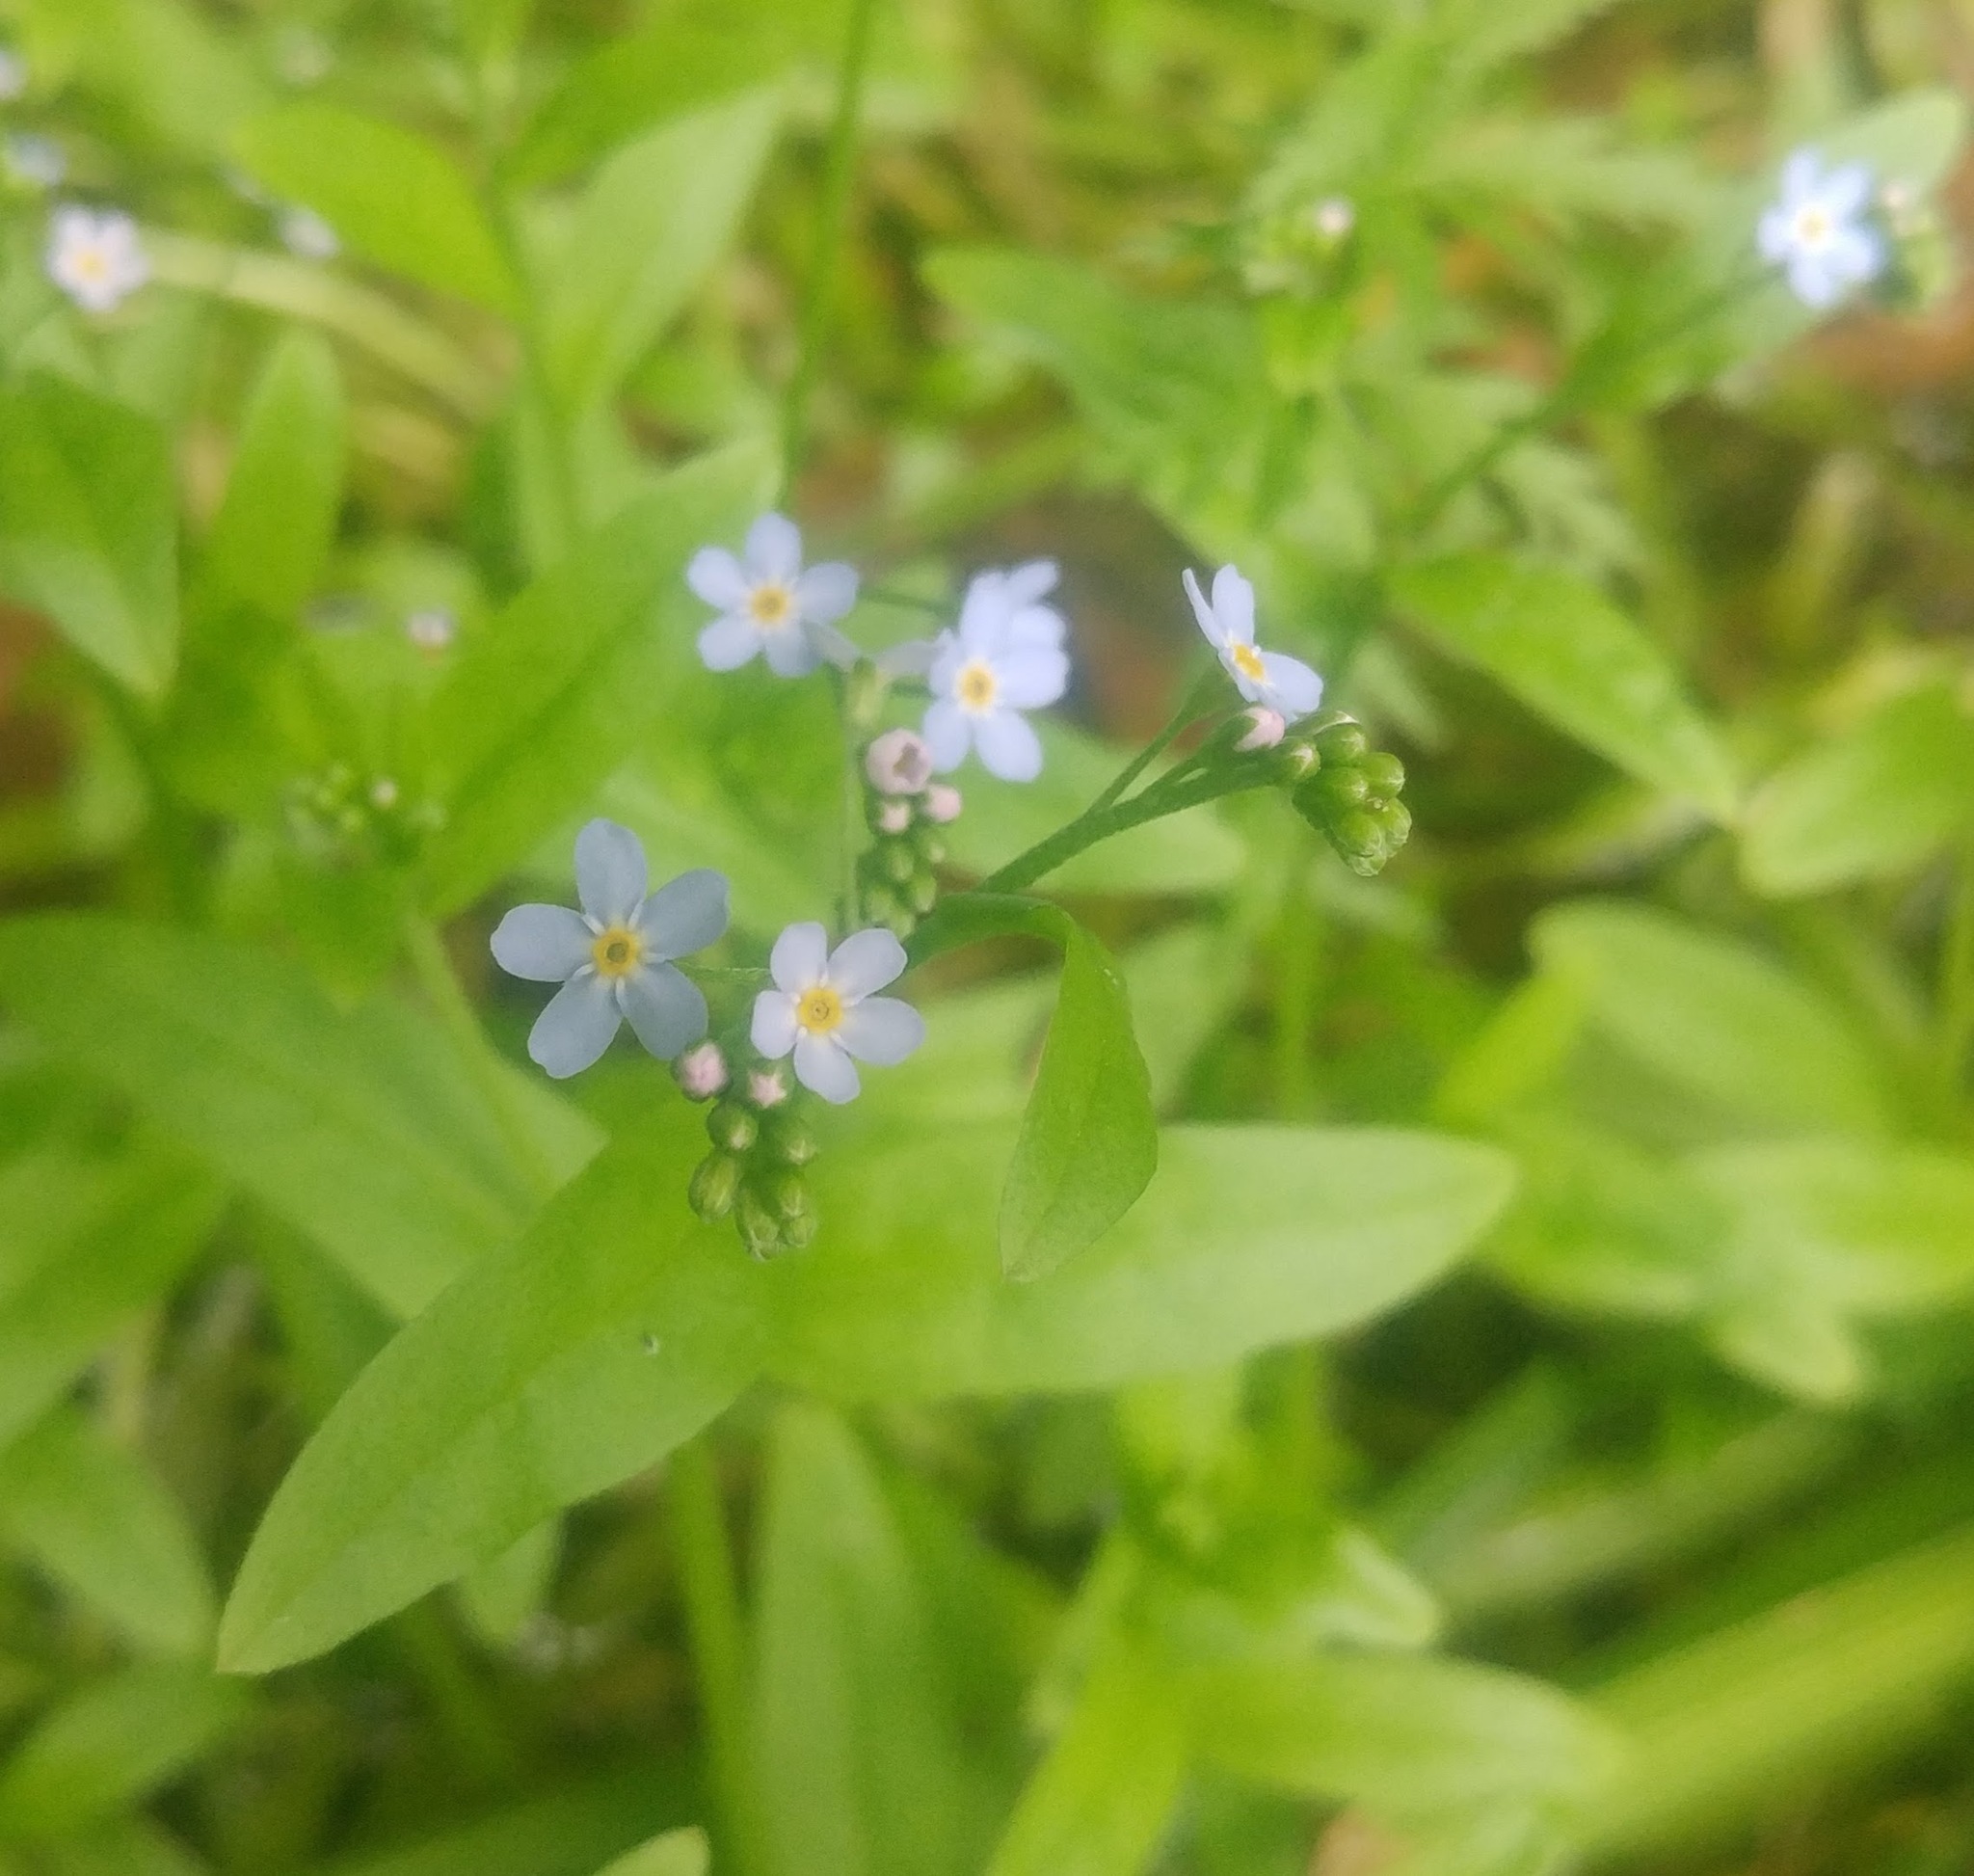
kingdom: Plantae
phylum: Tracheophyta
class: Magnoliopsida
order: Boraginales
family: Boraginaceae
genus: Myosotis
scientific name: Myosotis scorpioides
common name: Water forget-me-not
